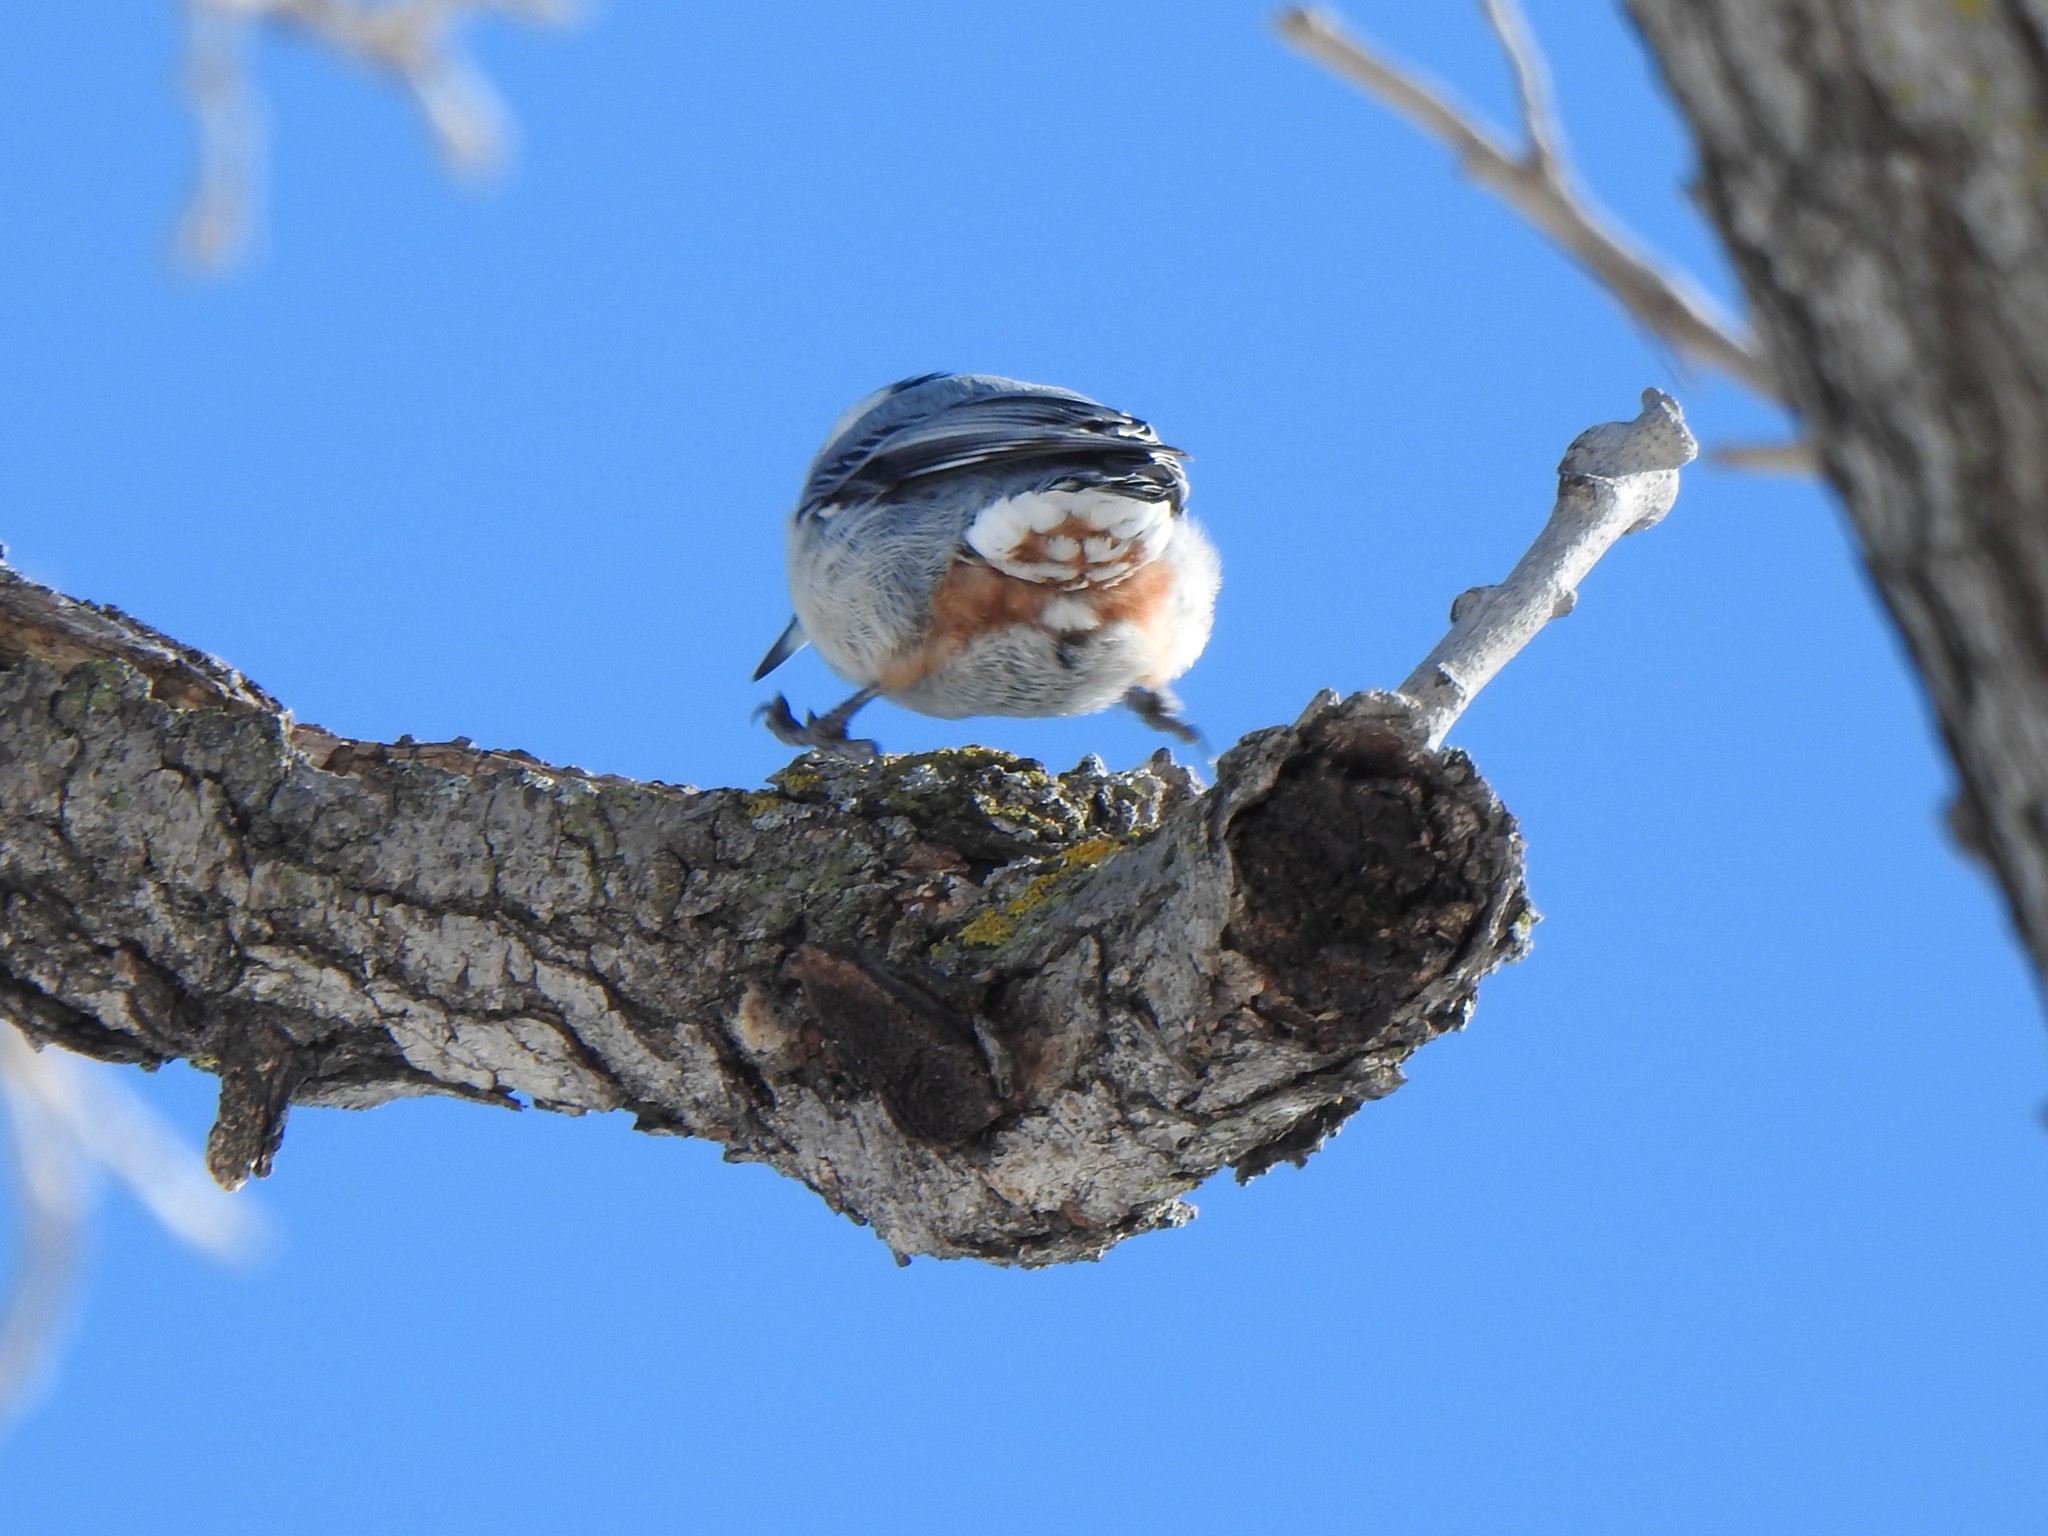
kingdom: Animalia
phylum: Chordata
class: Aves
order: Passeriformes
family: Sittidae
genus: Sitta
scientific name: Sitta carolinensis
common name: White-breasted nuthatch
